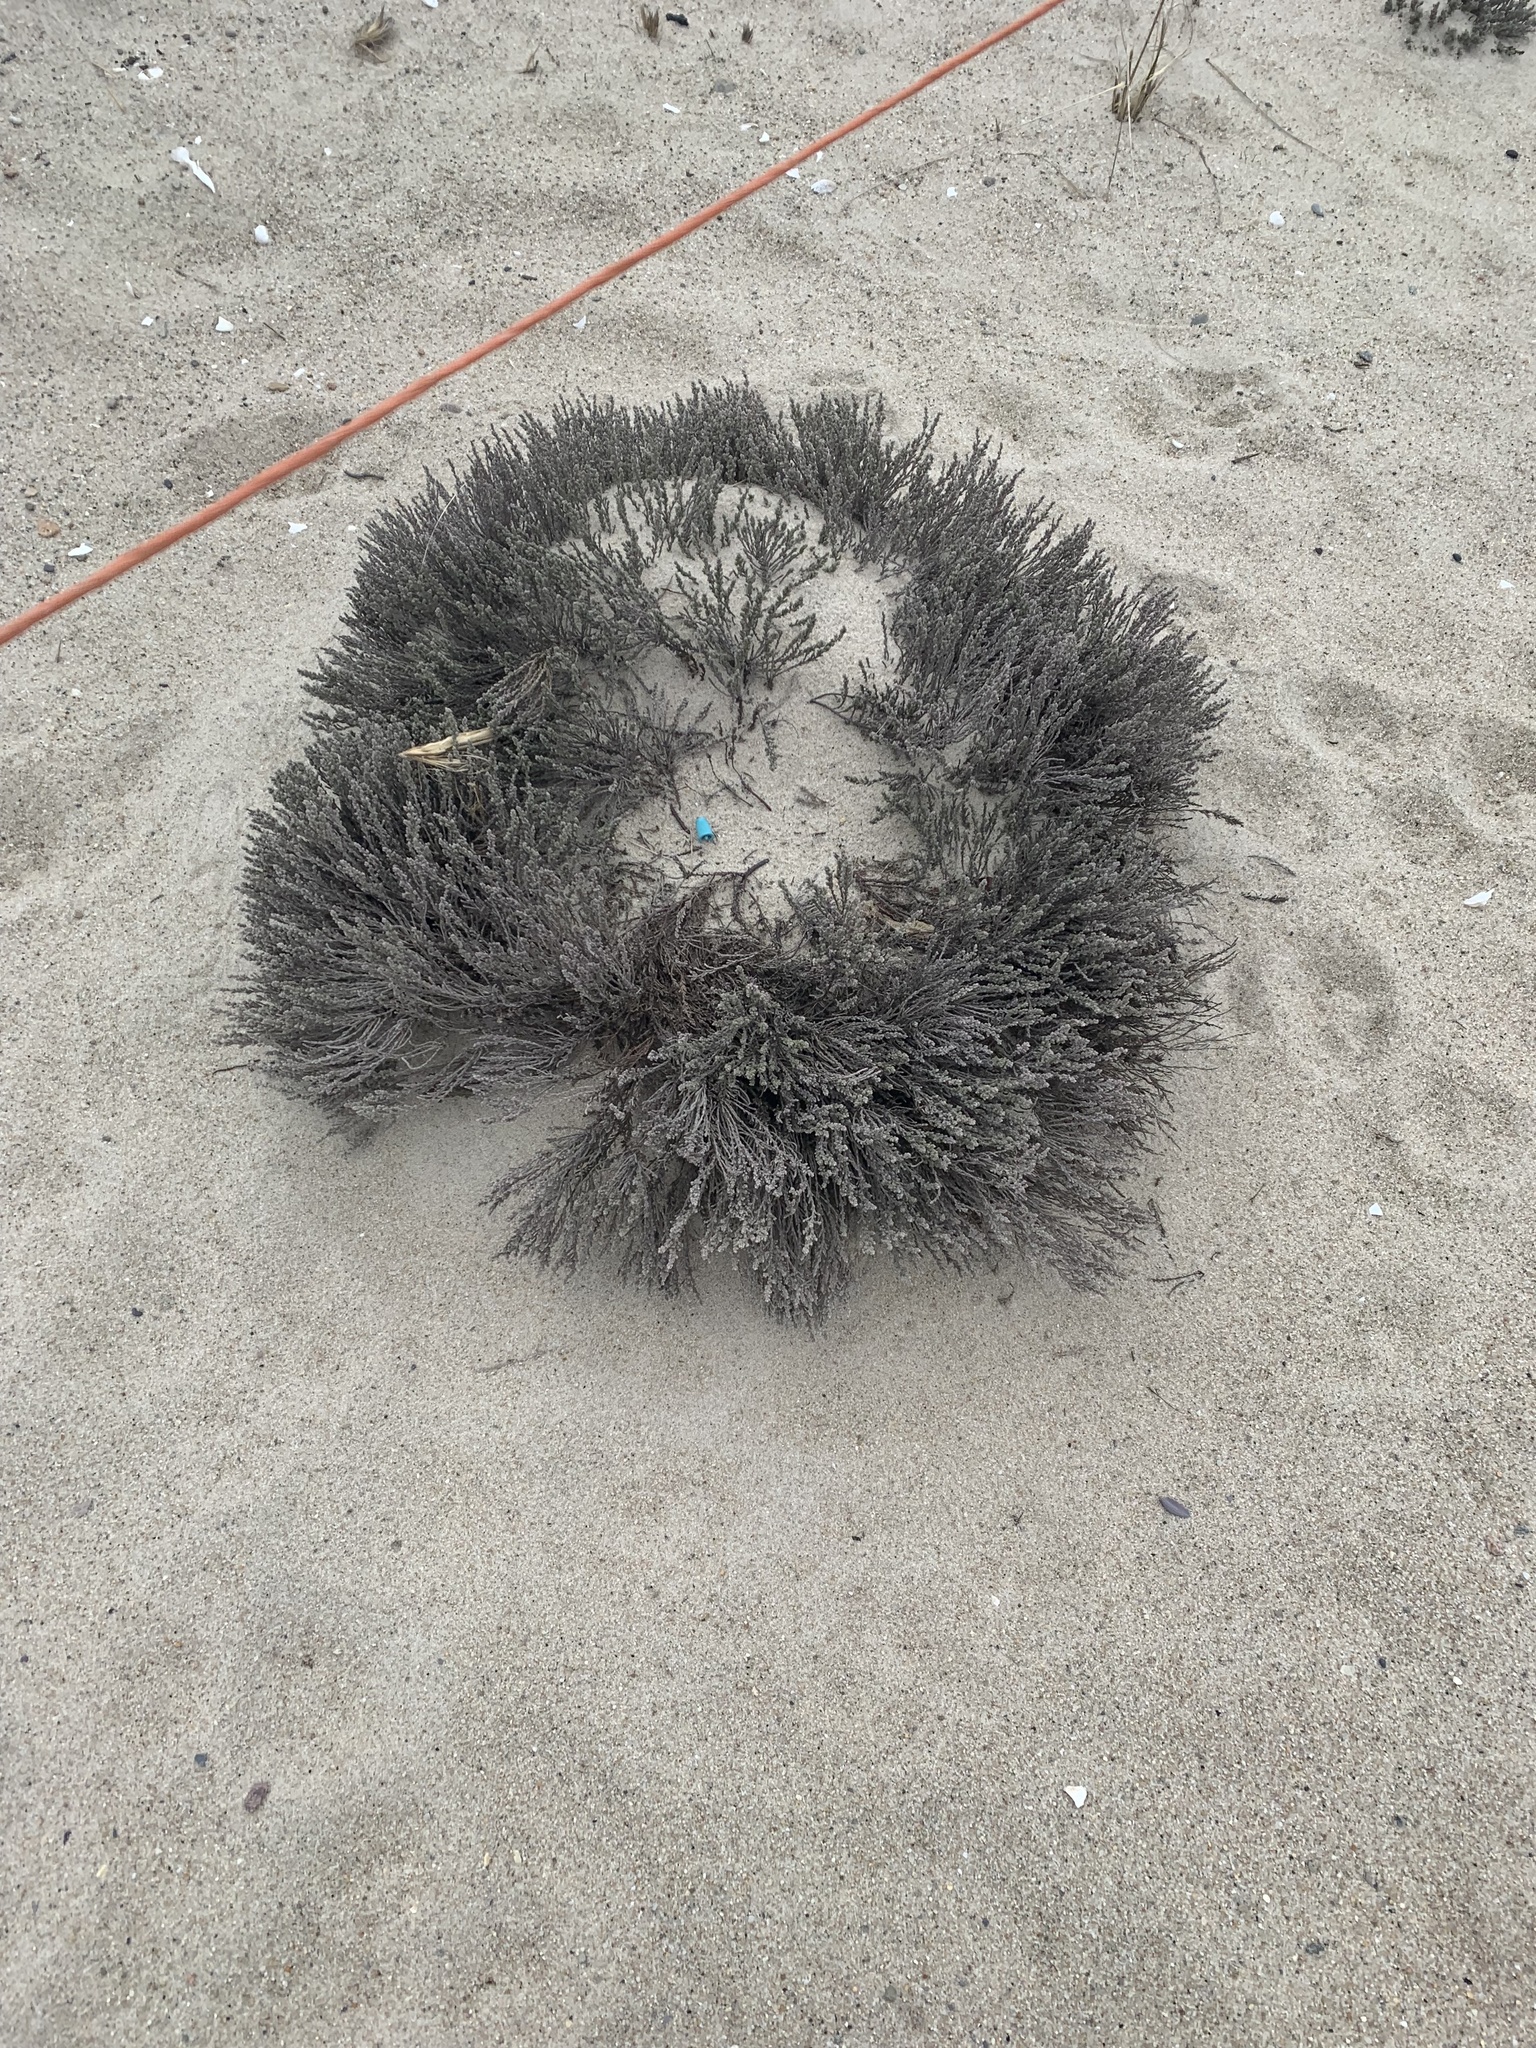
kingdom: Plantae
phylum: Tracheophyta
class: Magnoliopsida
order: Malvales
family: Cistaceae
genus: Hudsonia
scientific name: Hudsonia tomentosa
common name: Beach-heath
